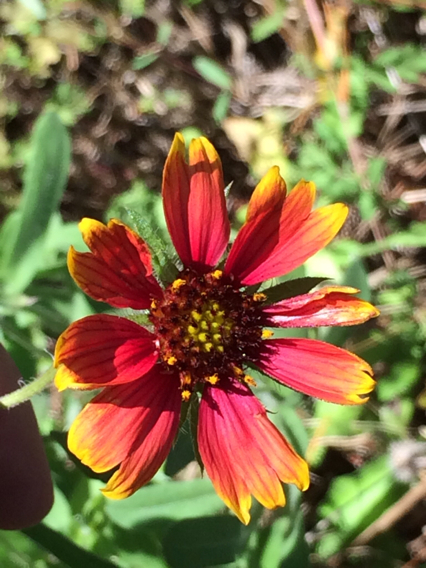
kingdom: Plantae
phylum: Tracheophyta
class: Magnoliopsida
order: Asterales
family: Asteraceae
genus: Gaillardia
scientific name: Gaillardia pulchella
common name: Firewheel
